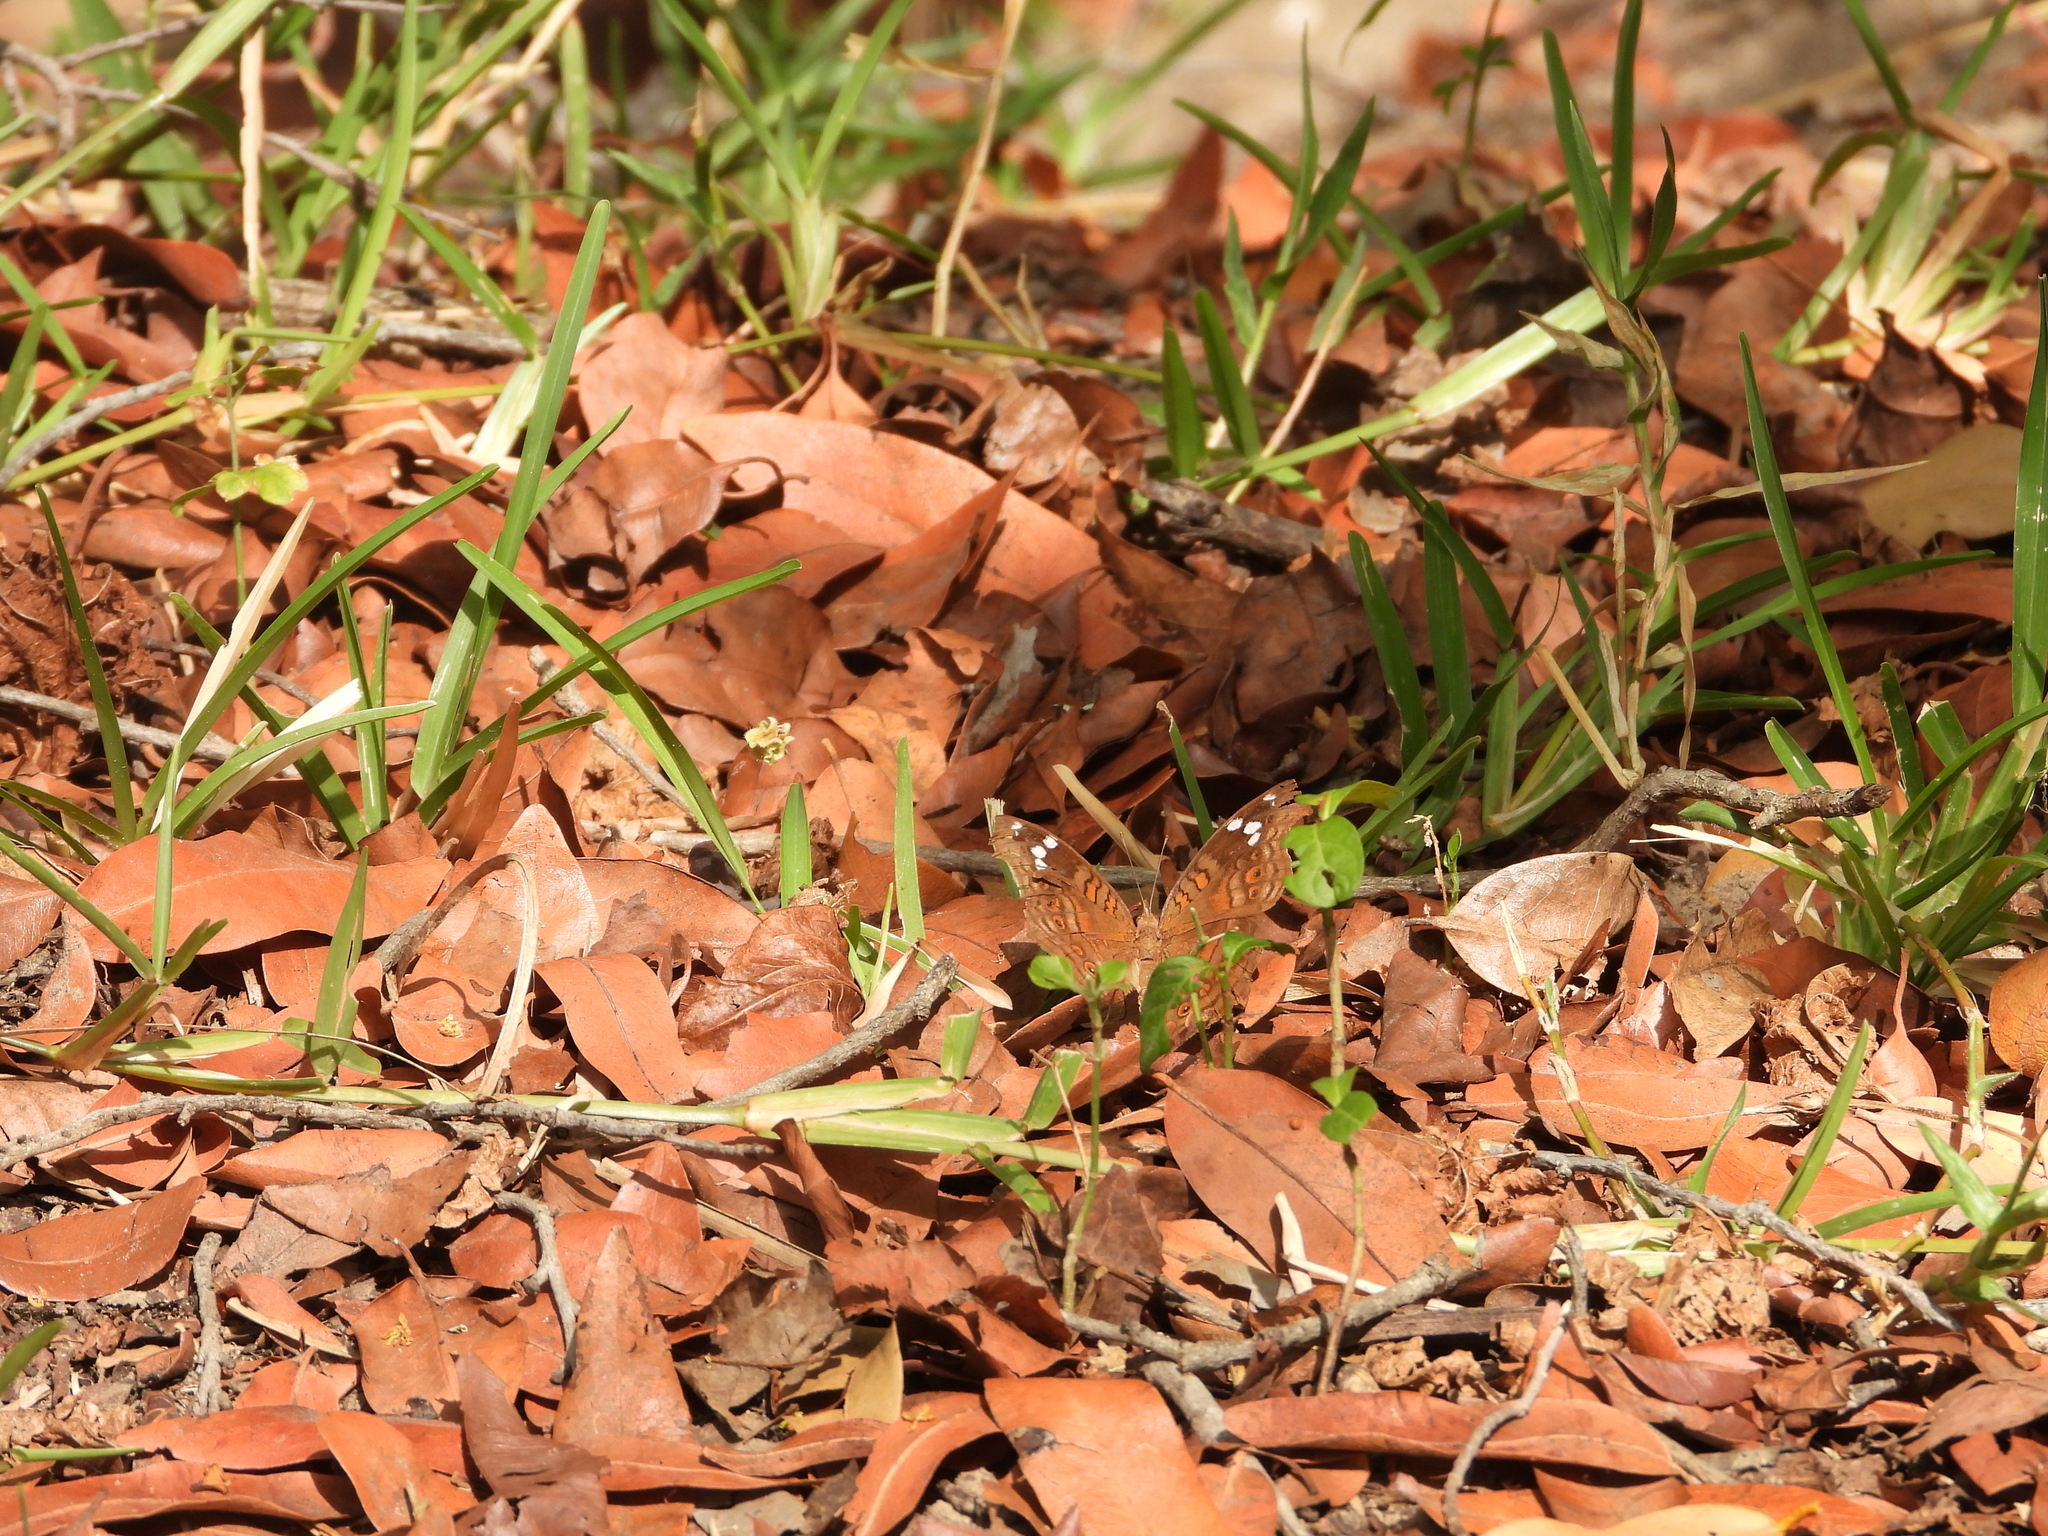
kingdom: Animalia
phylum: Arthropoda
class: Insecta
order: Lepidoptera
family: Nymphalidae
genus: Junonia
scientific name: Junonia natalica
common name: Brown pansy
